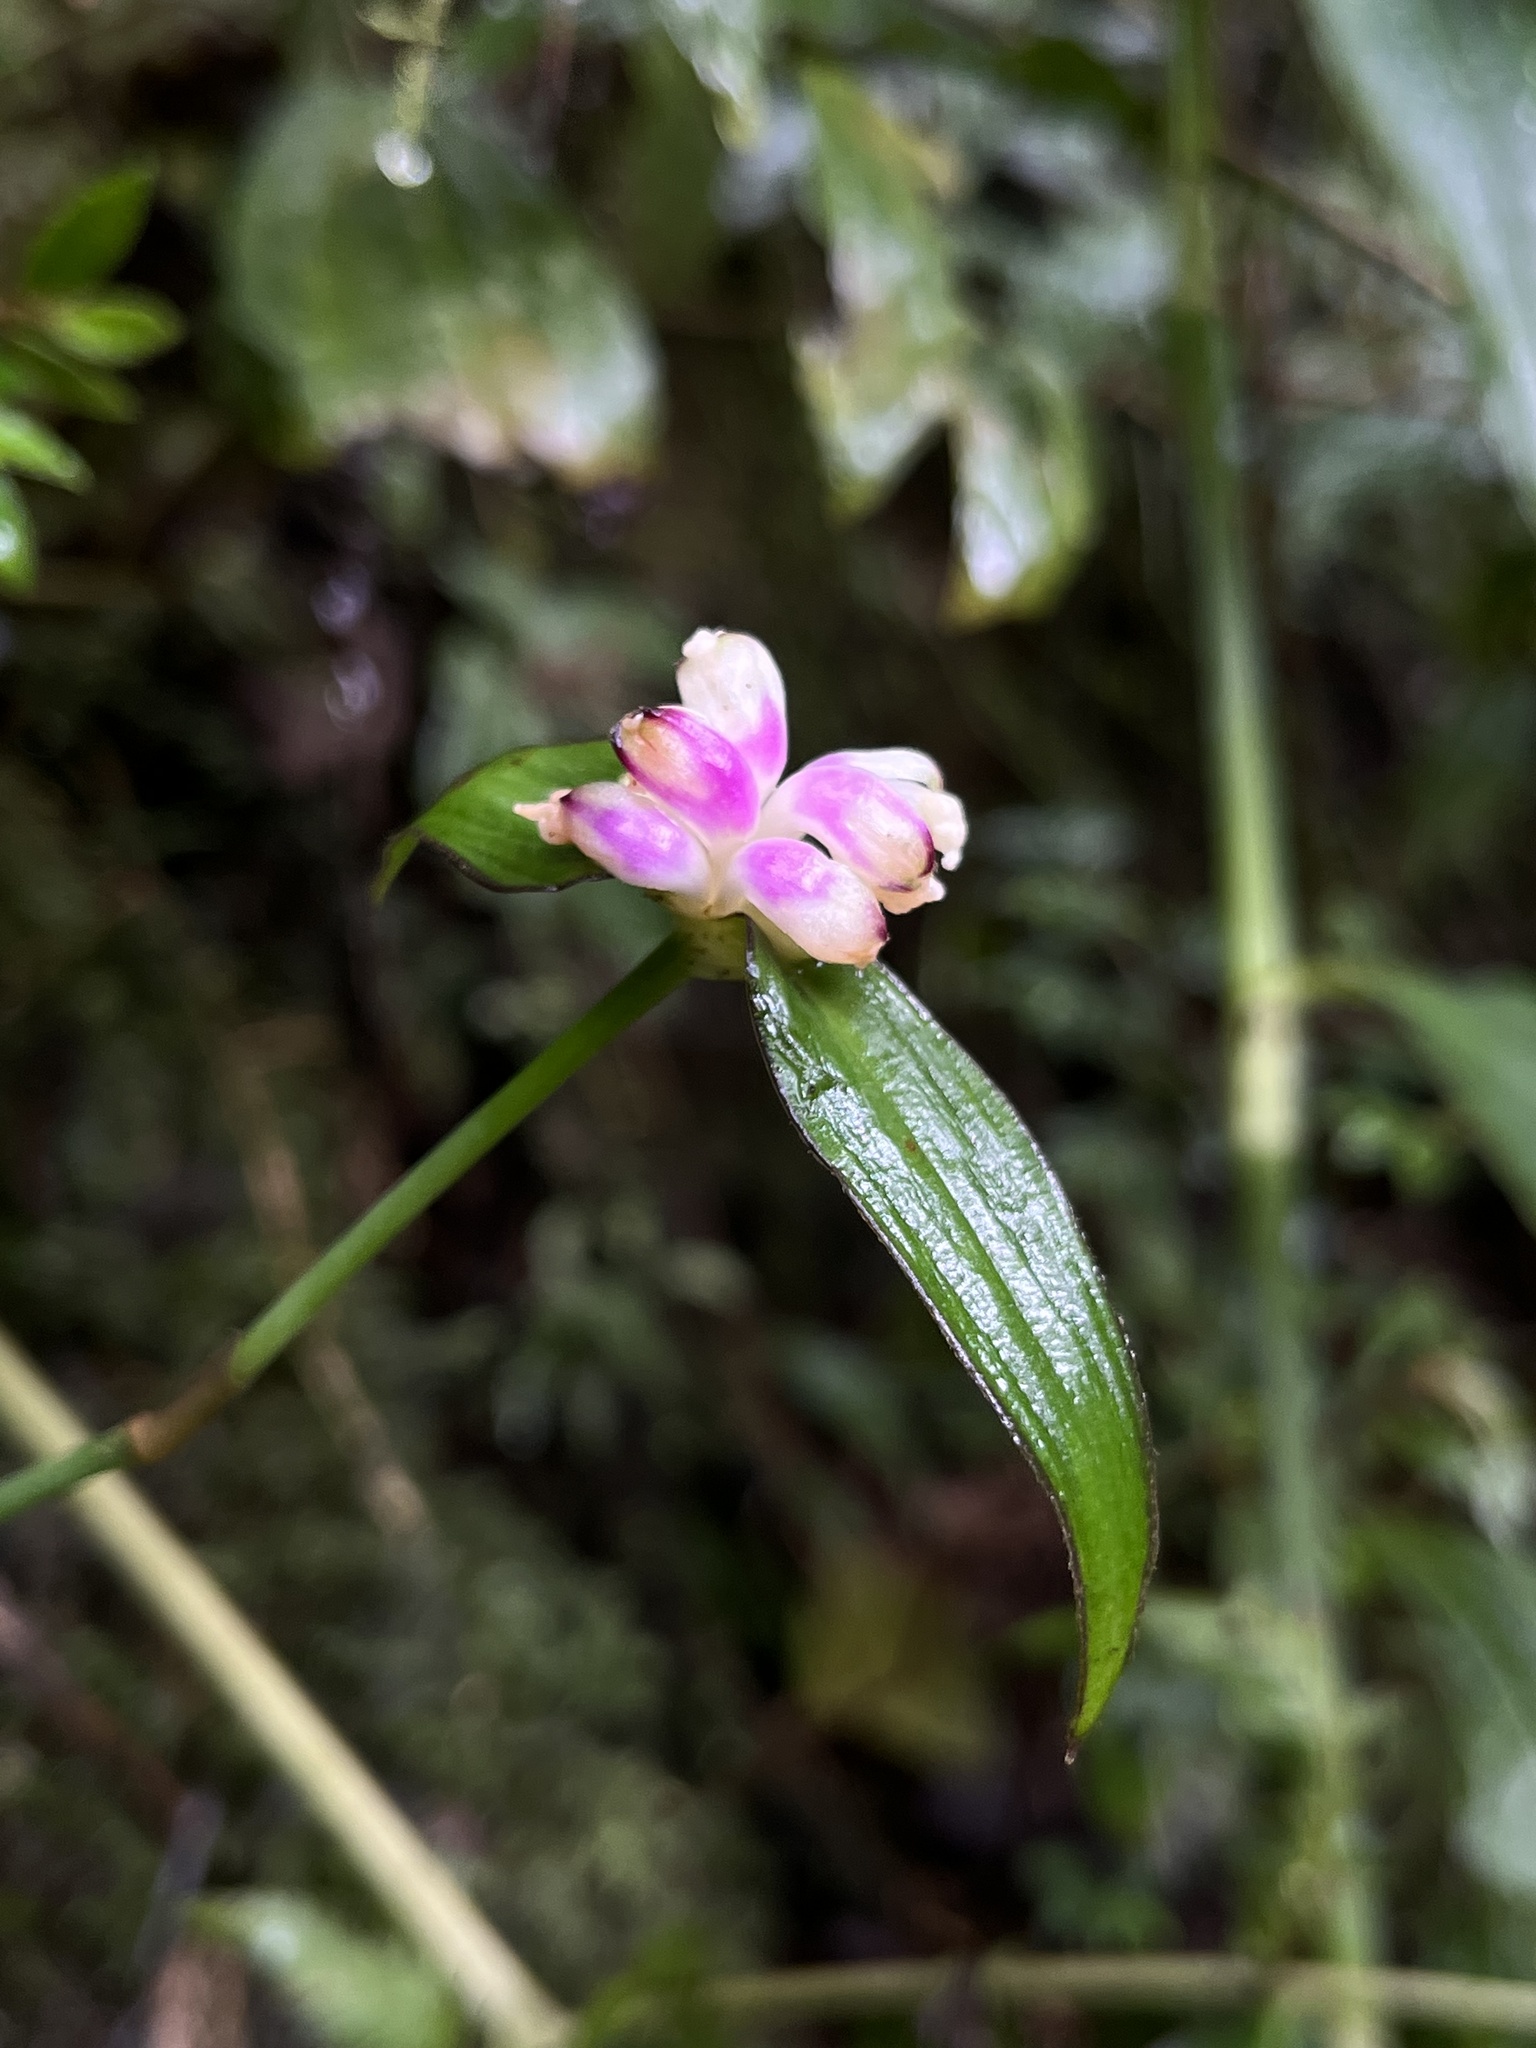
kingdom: Plantae
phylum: Tracheophyta
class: Liliopsida
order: Commelinales
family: Commelinaceae
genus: Tradescantia
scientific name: Tradescantia zanonia
